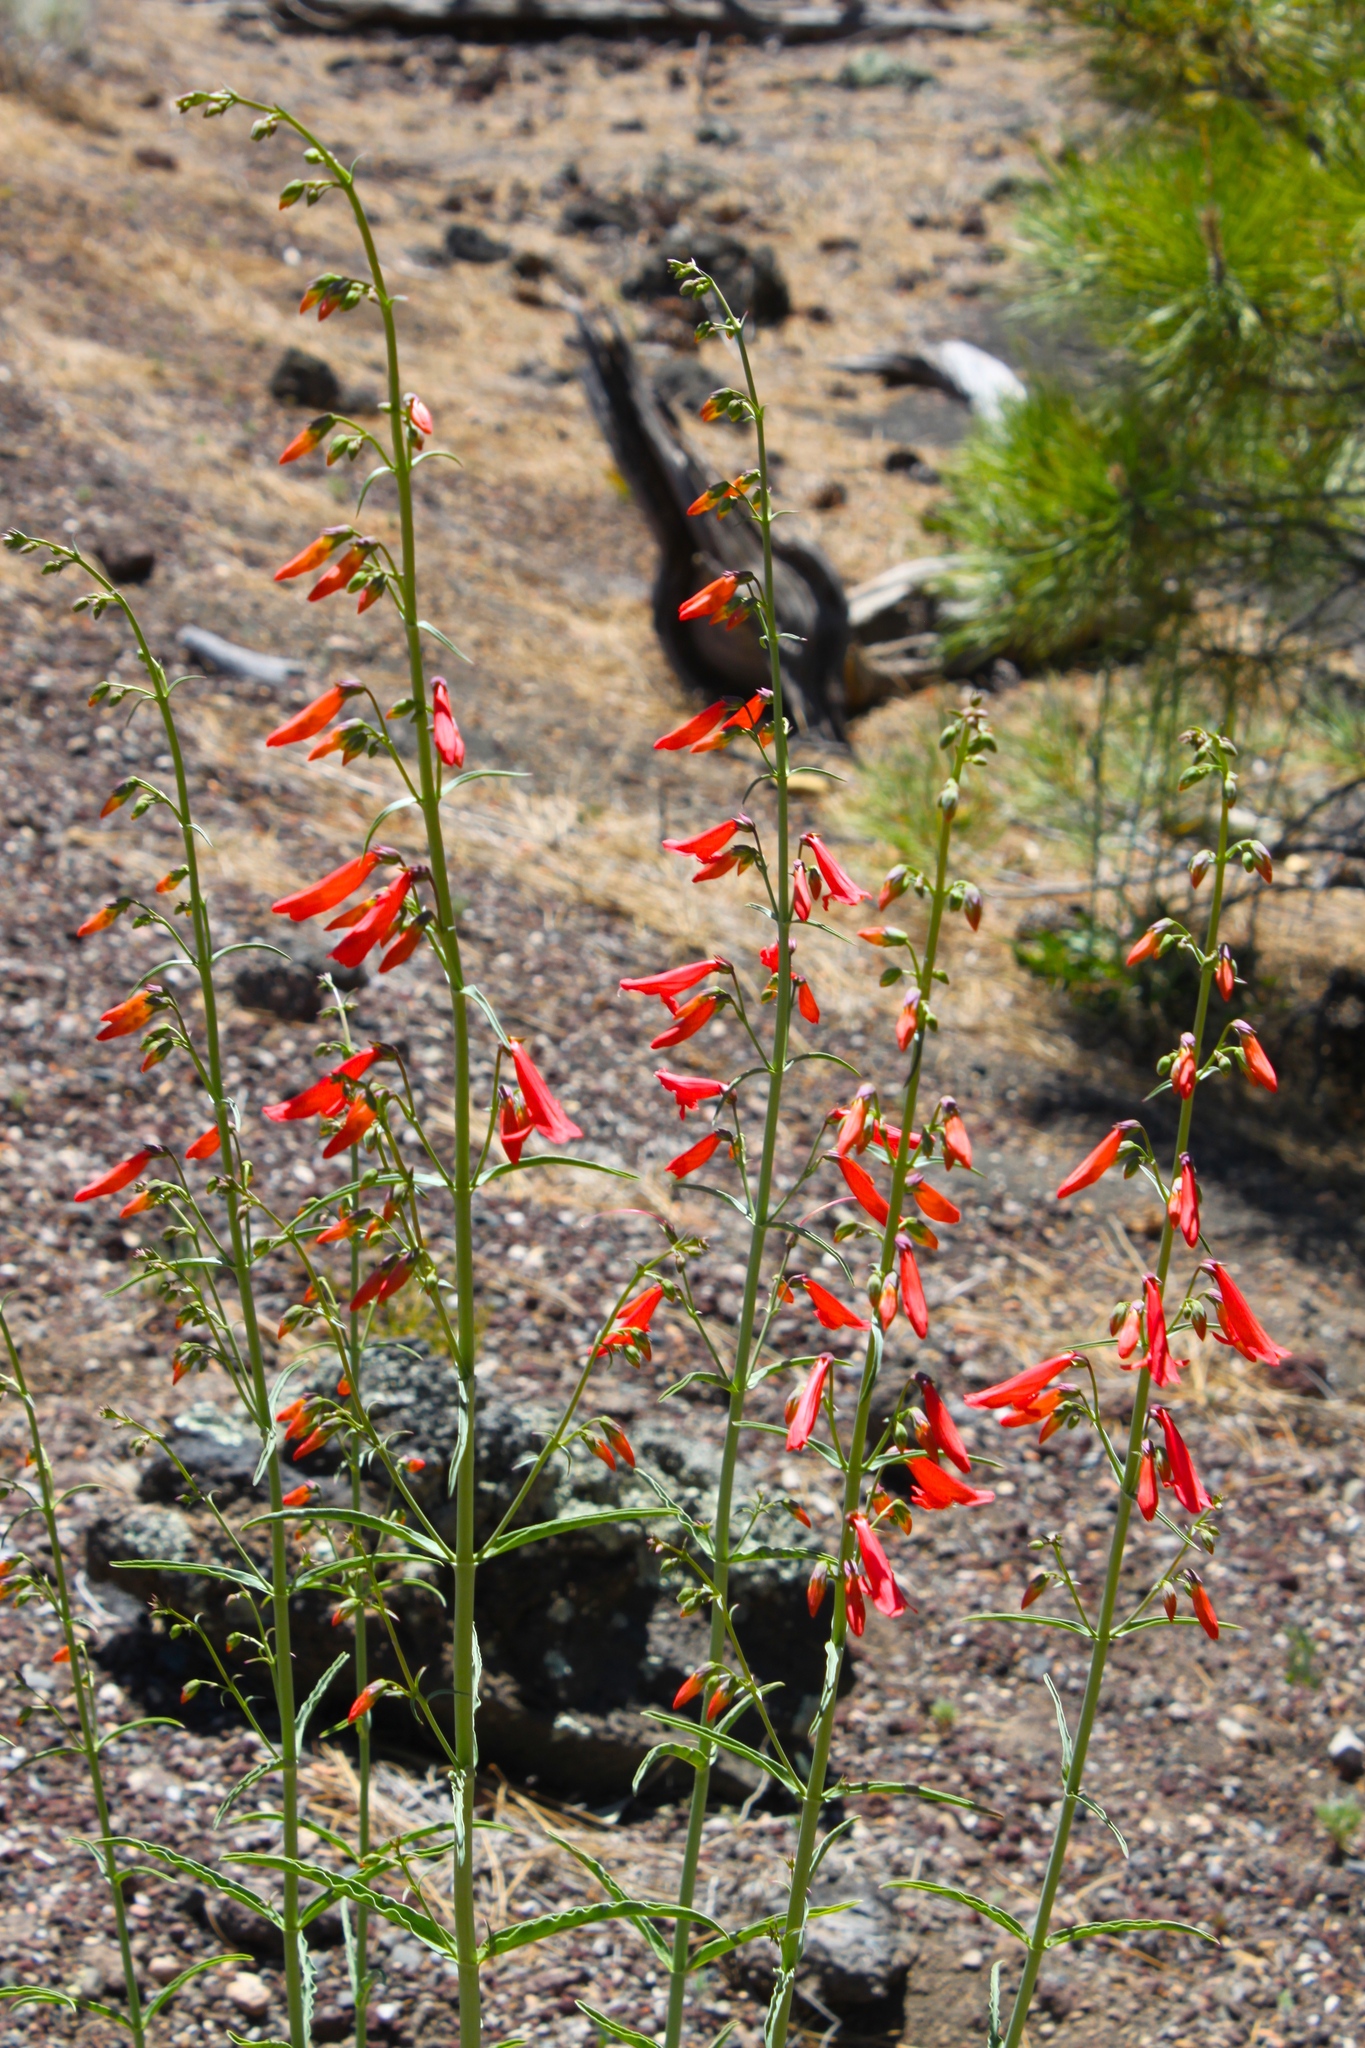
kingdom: Plantae
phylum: Tracheophyta
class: Magnoliopsida
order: Lamiales
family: Plantaginaceae
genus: Penstemon
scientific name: Penstemon barbatus
